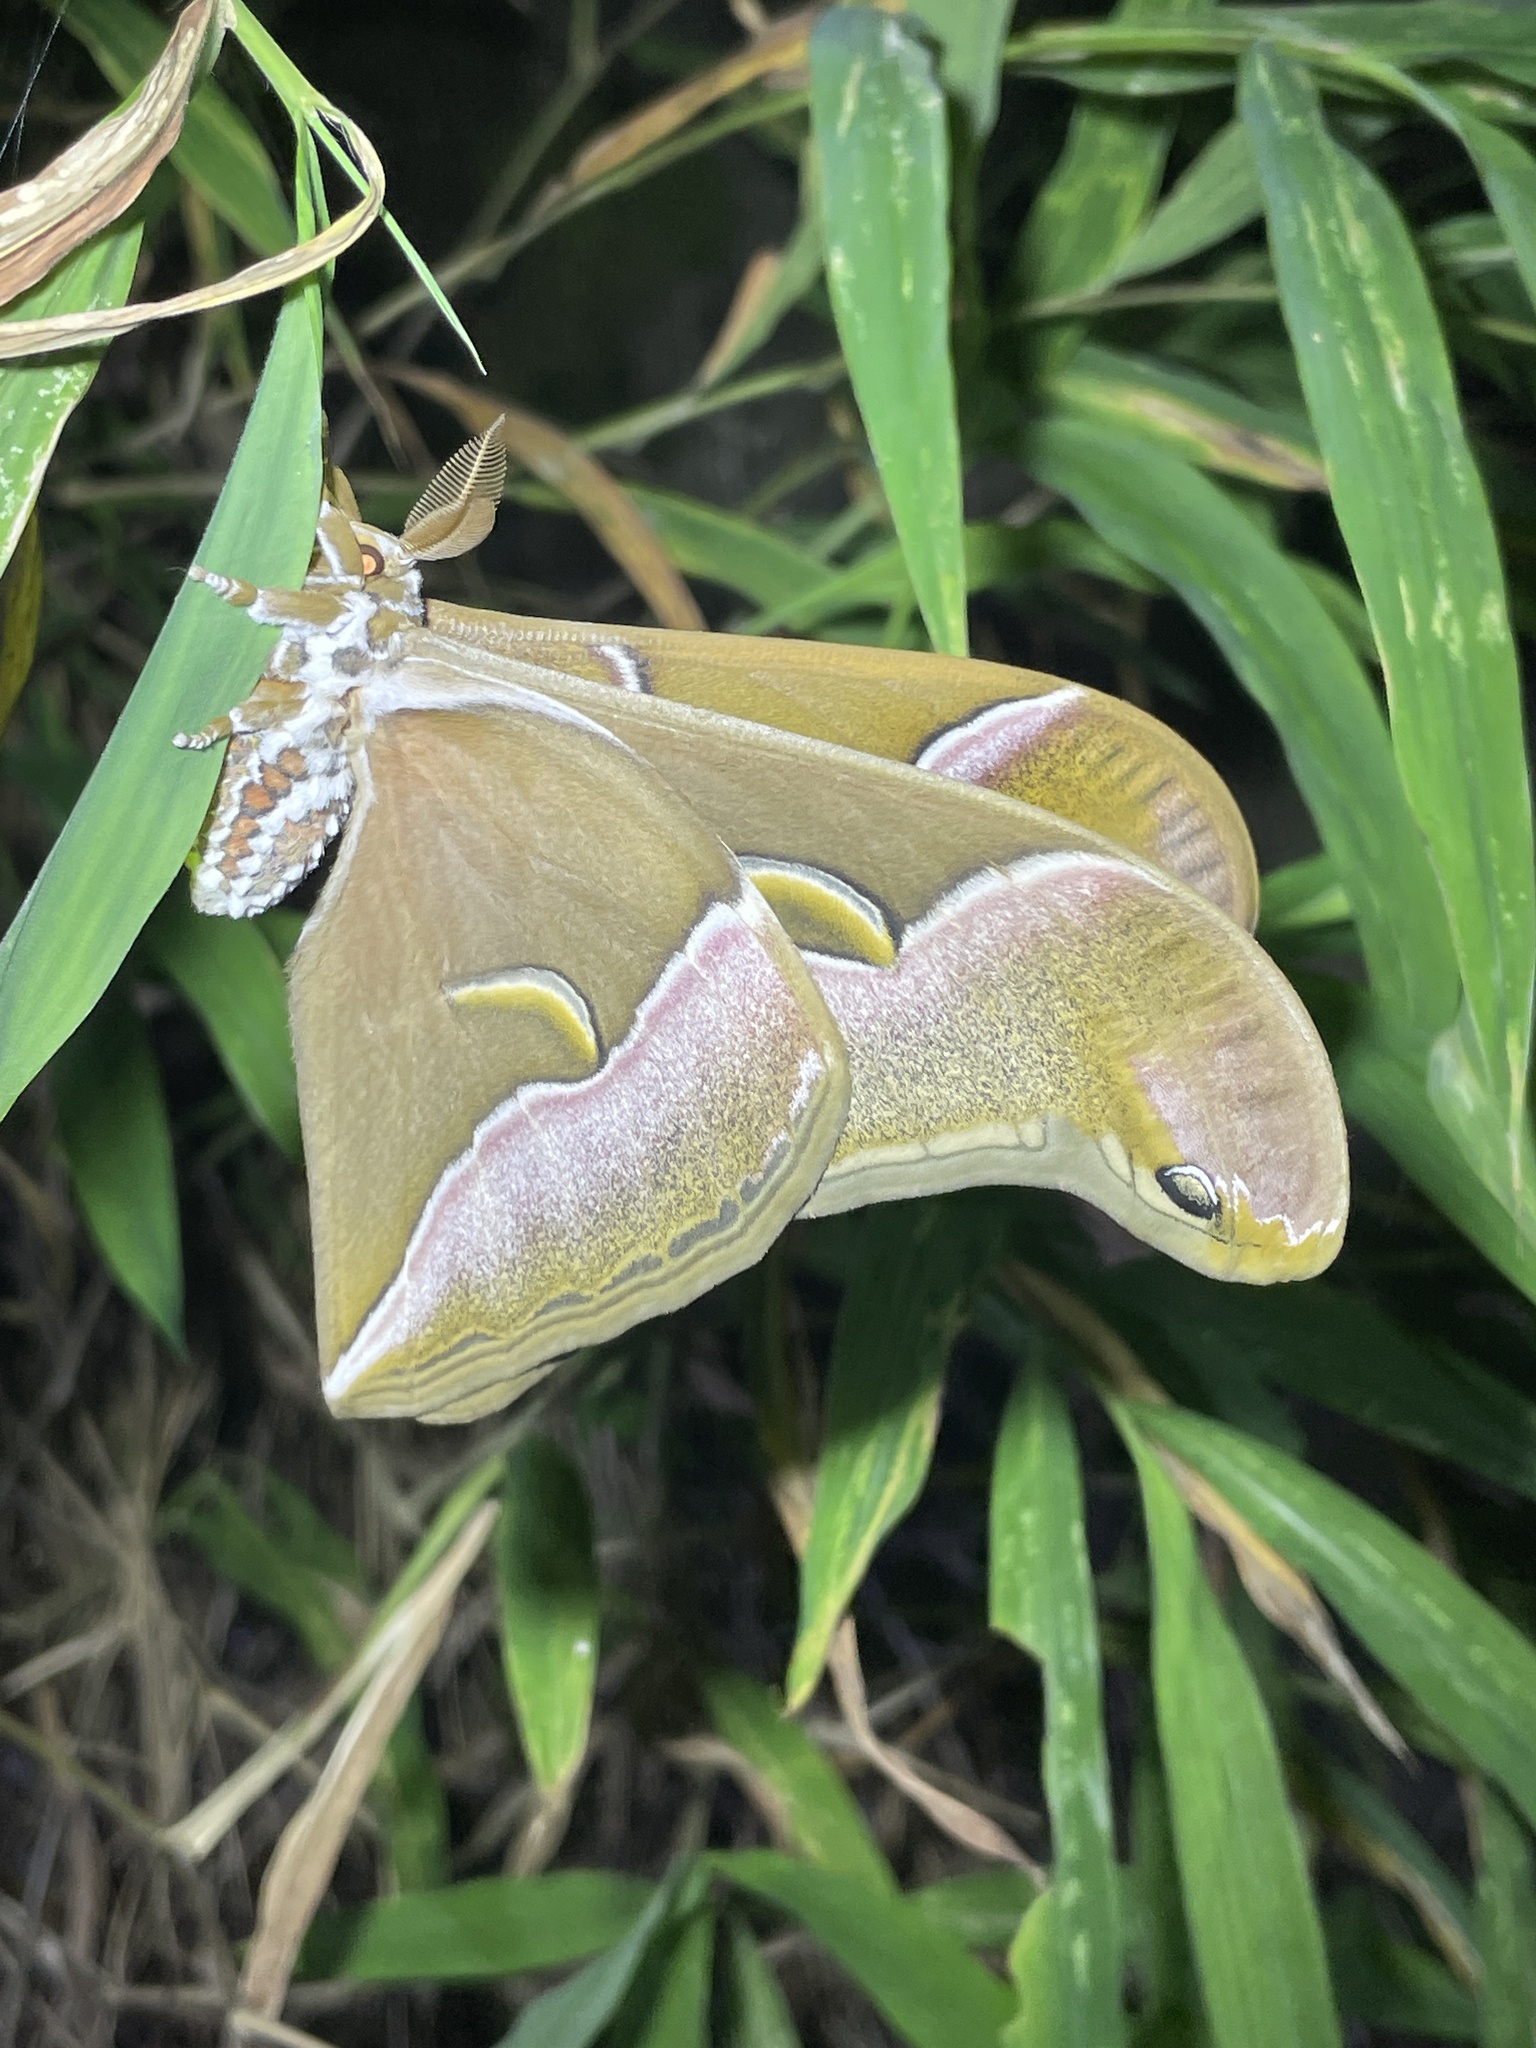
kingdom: Animalia
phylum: Arthropoda
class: Insecta
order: Lepidoptera
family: Saturniidae
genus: Samia
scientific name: Samia wangi
